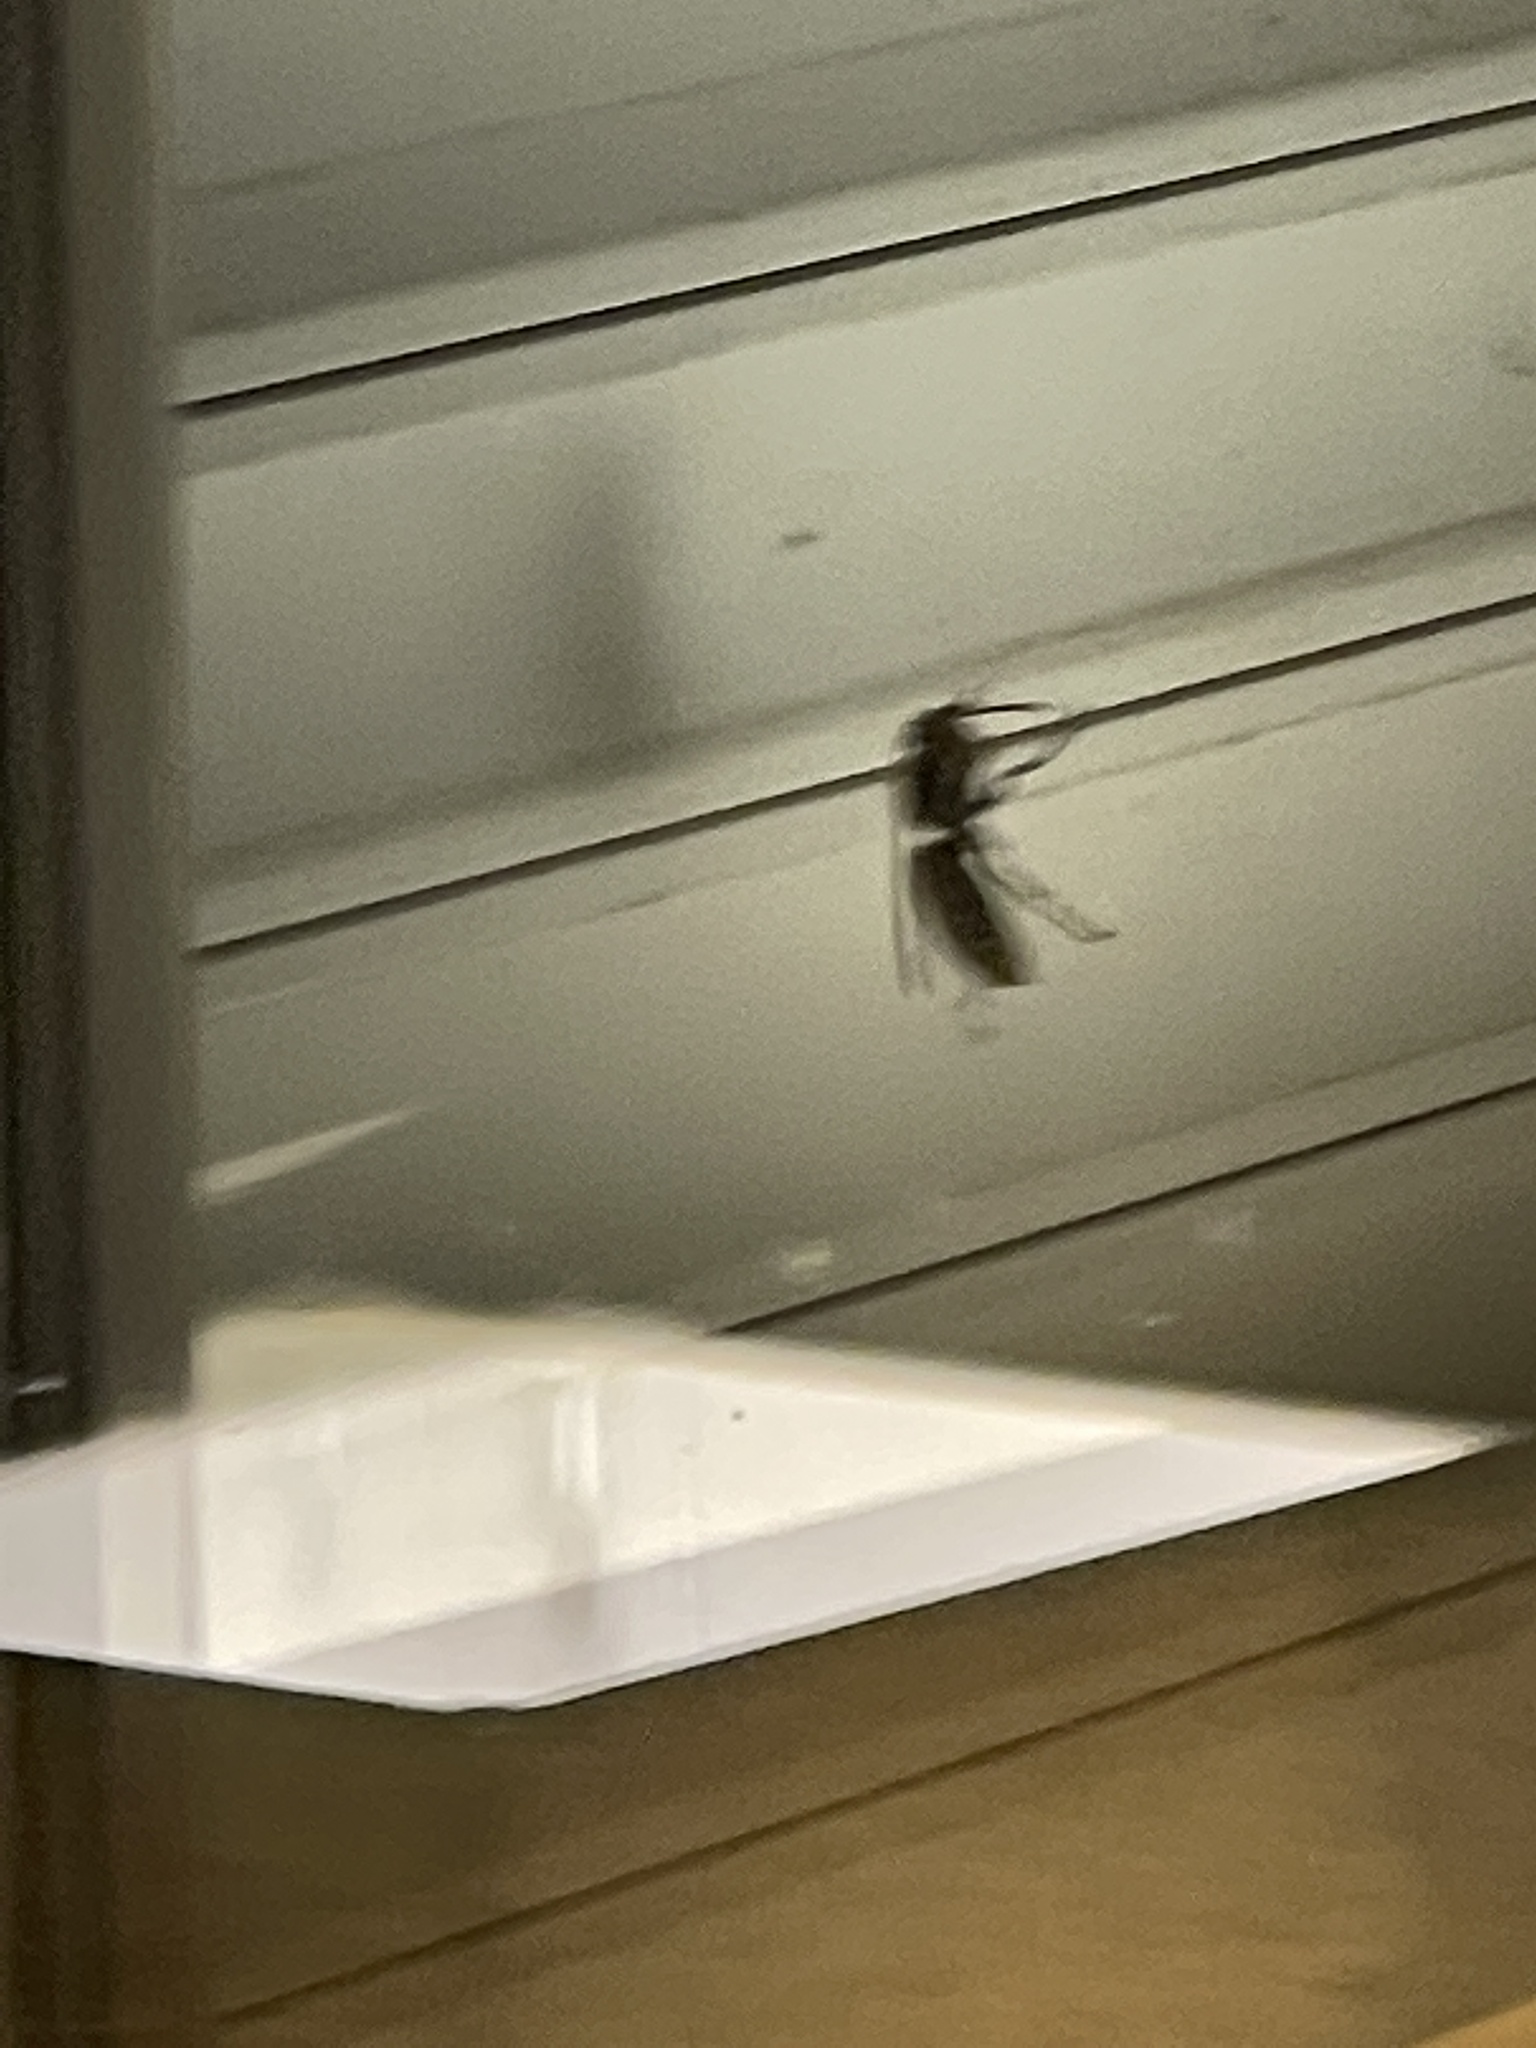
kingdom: Animalia
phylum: Arthropoda
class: Insecta
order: Hymenoptera
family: Vespidae
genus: Vespa
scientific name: Vespa crabro
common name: Hornet
